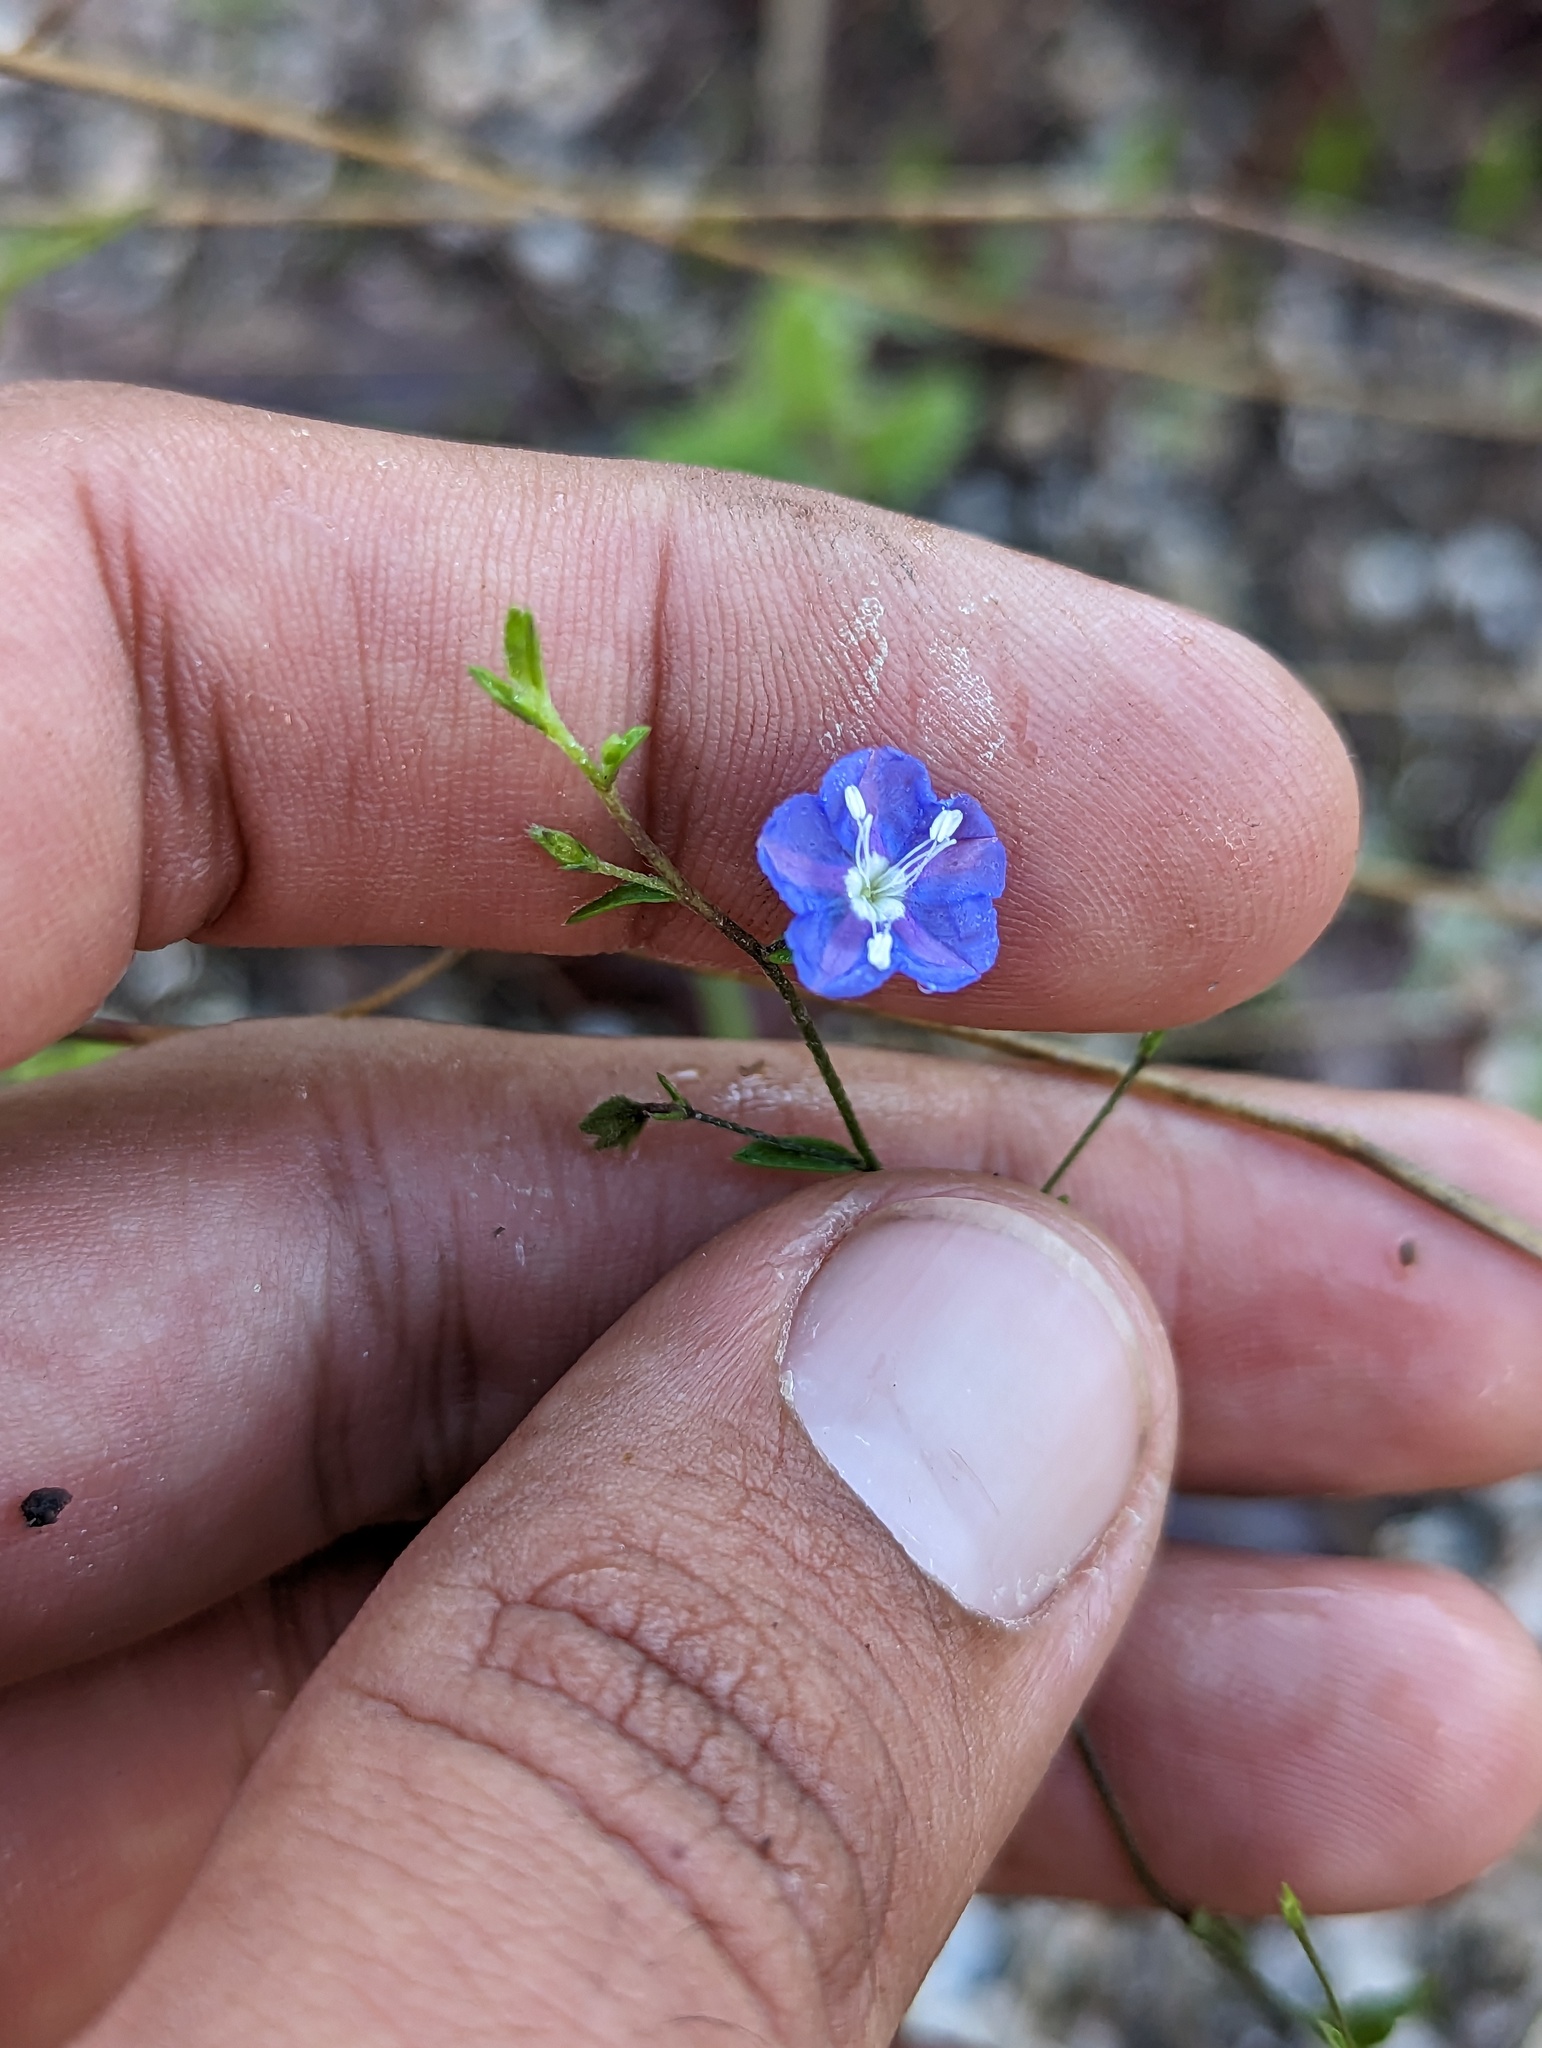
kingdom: Plantae
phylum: Tracheophyta
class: Magnoliopsida
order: Solanales
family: Convolvulaceae
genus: Evolvulus
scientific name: Evolvulus alsinoides
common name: Slender dwarf morning-glory
